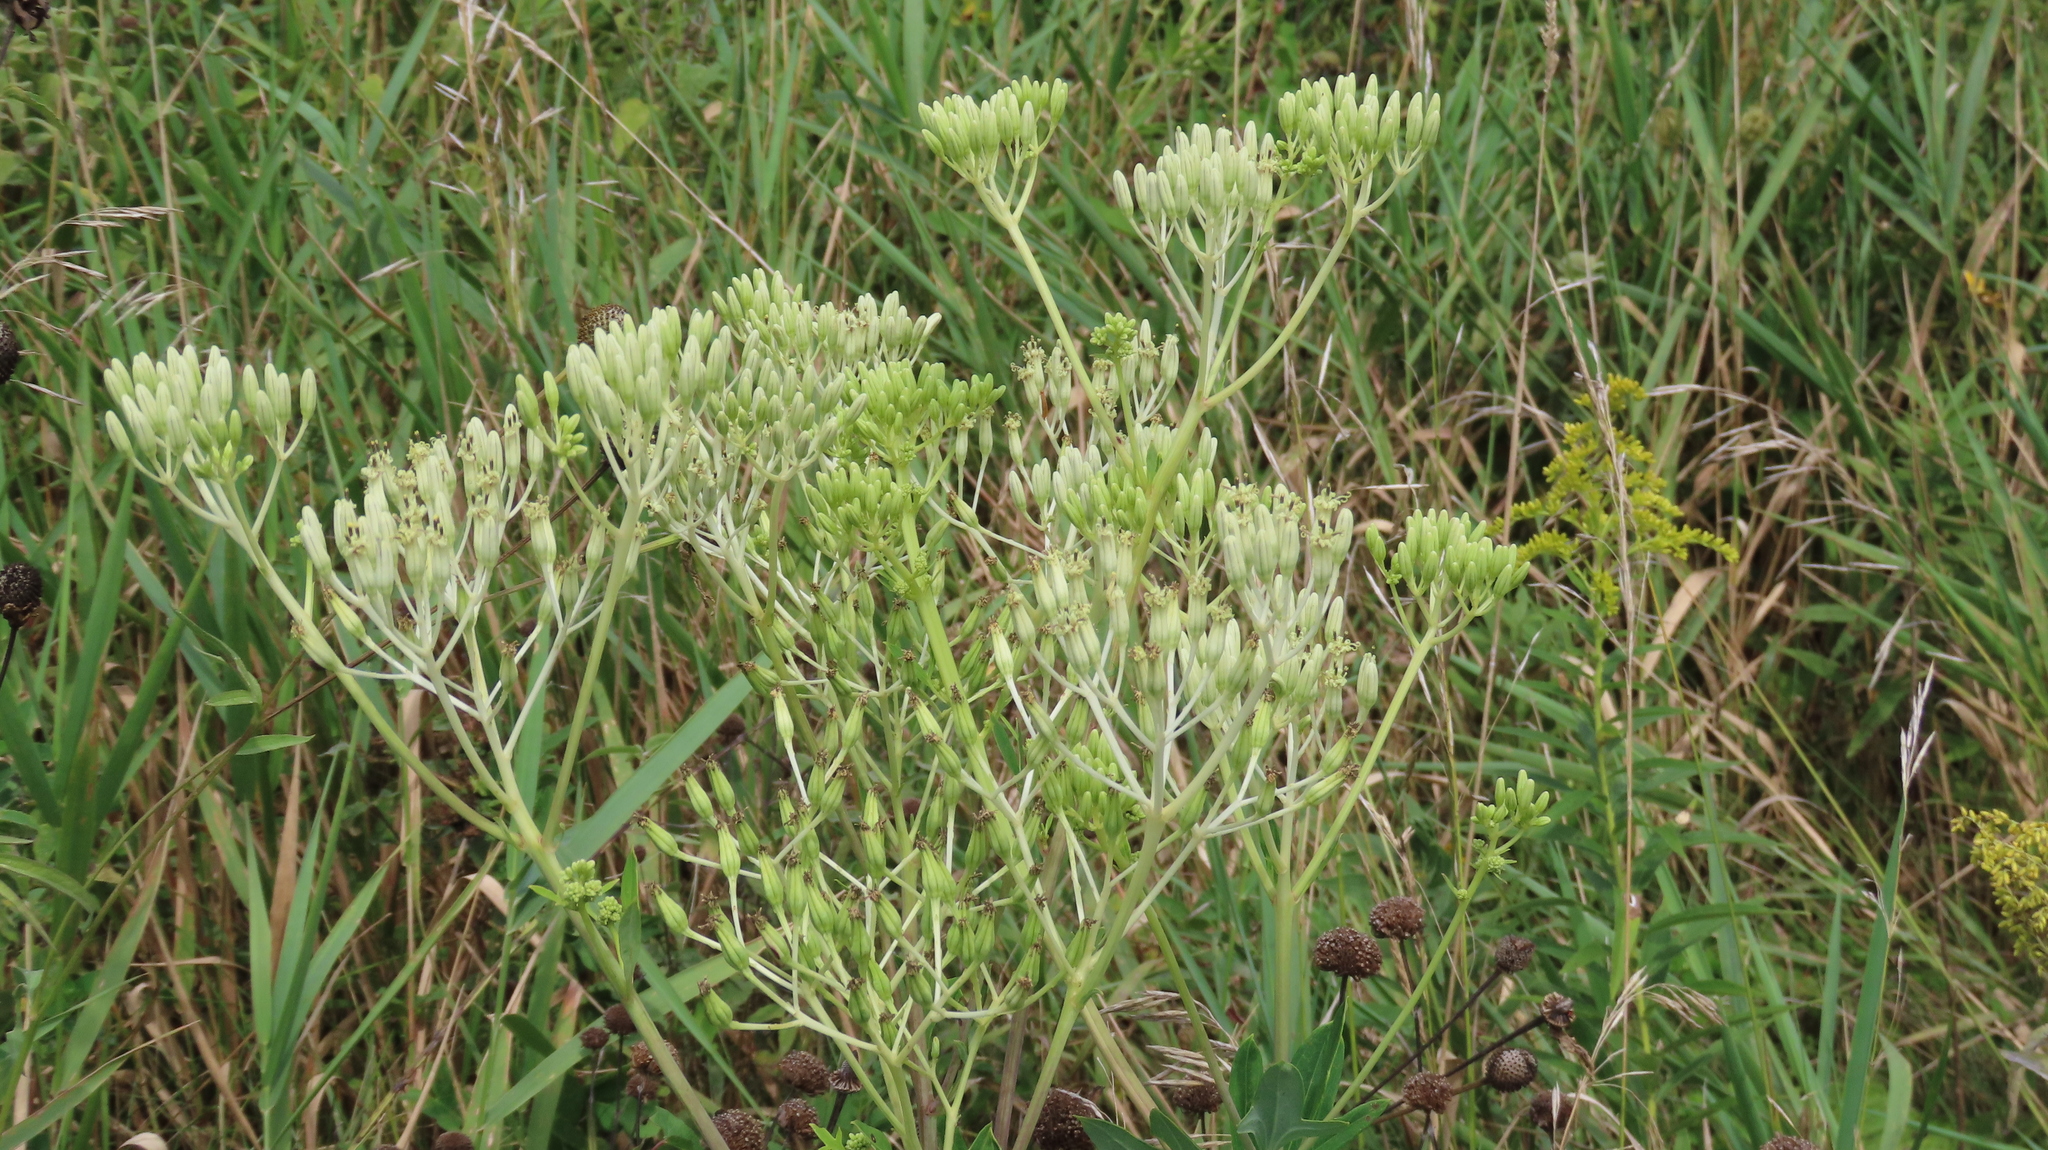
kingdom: Plantae
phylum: Tracheophyta
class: Magnoliopsida
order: Asterales
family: Asteraceae
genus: Arnoglossum
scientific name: Arnoglossum atriplicifolium
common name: Pale indian-plantain
